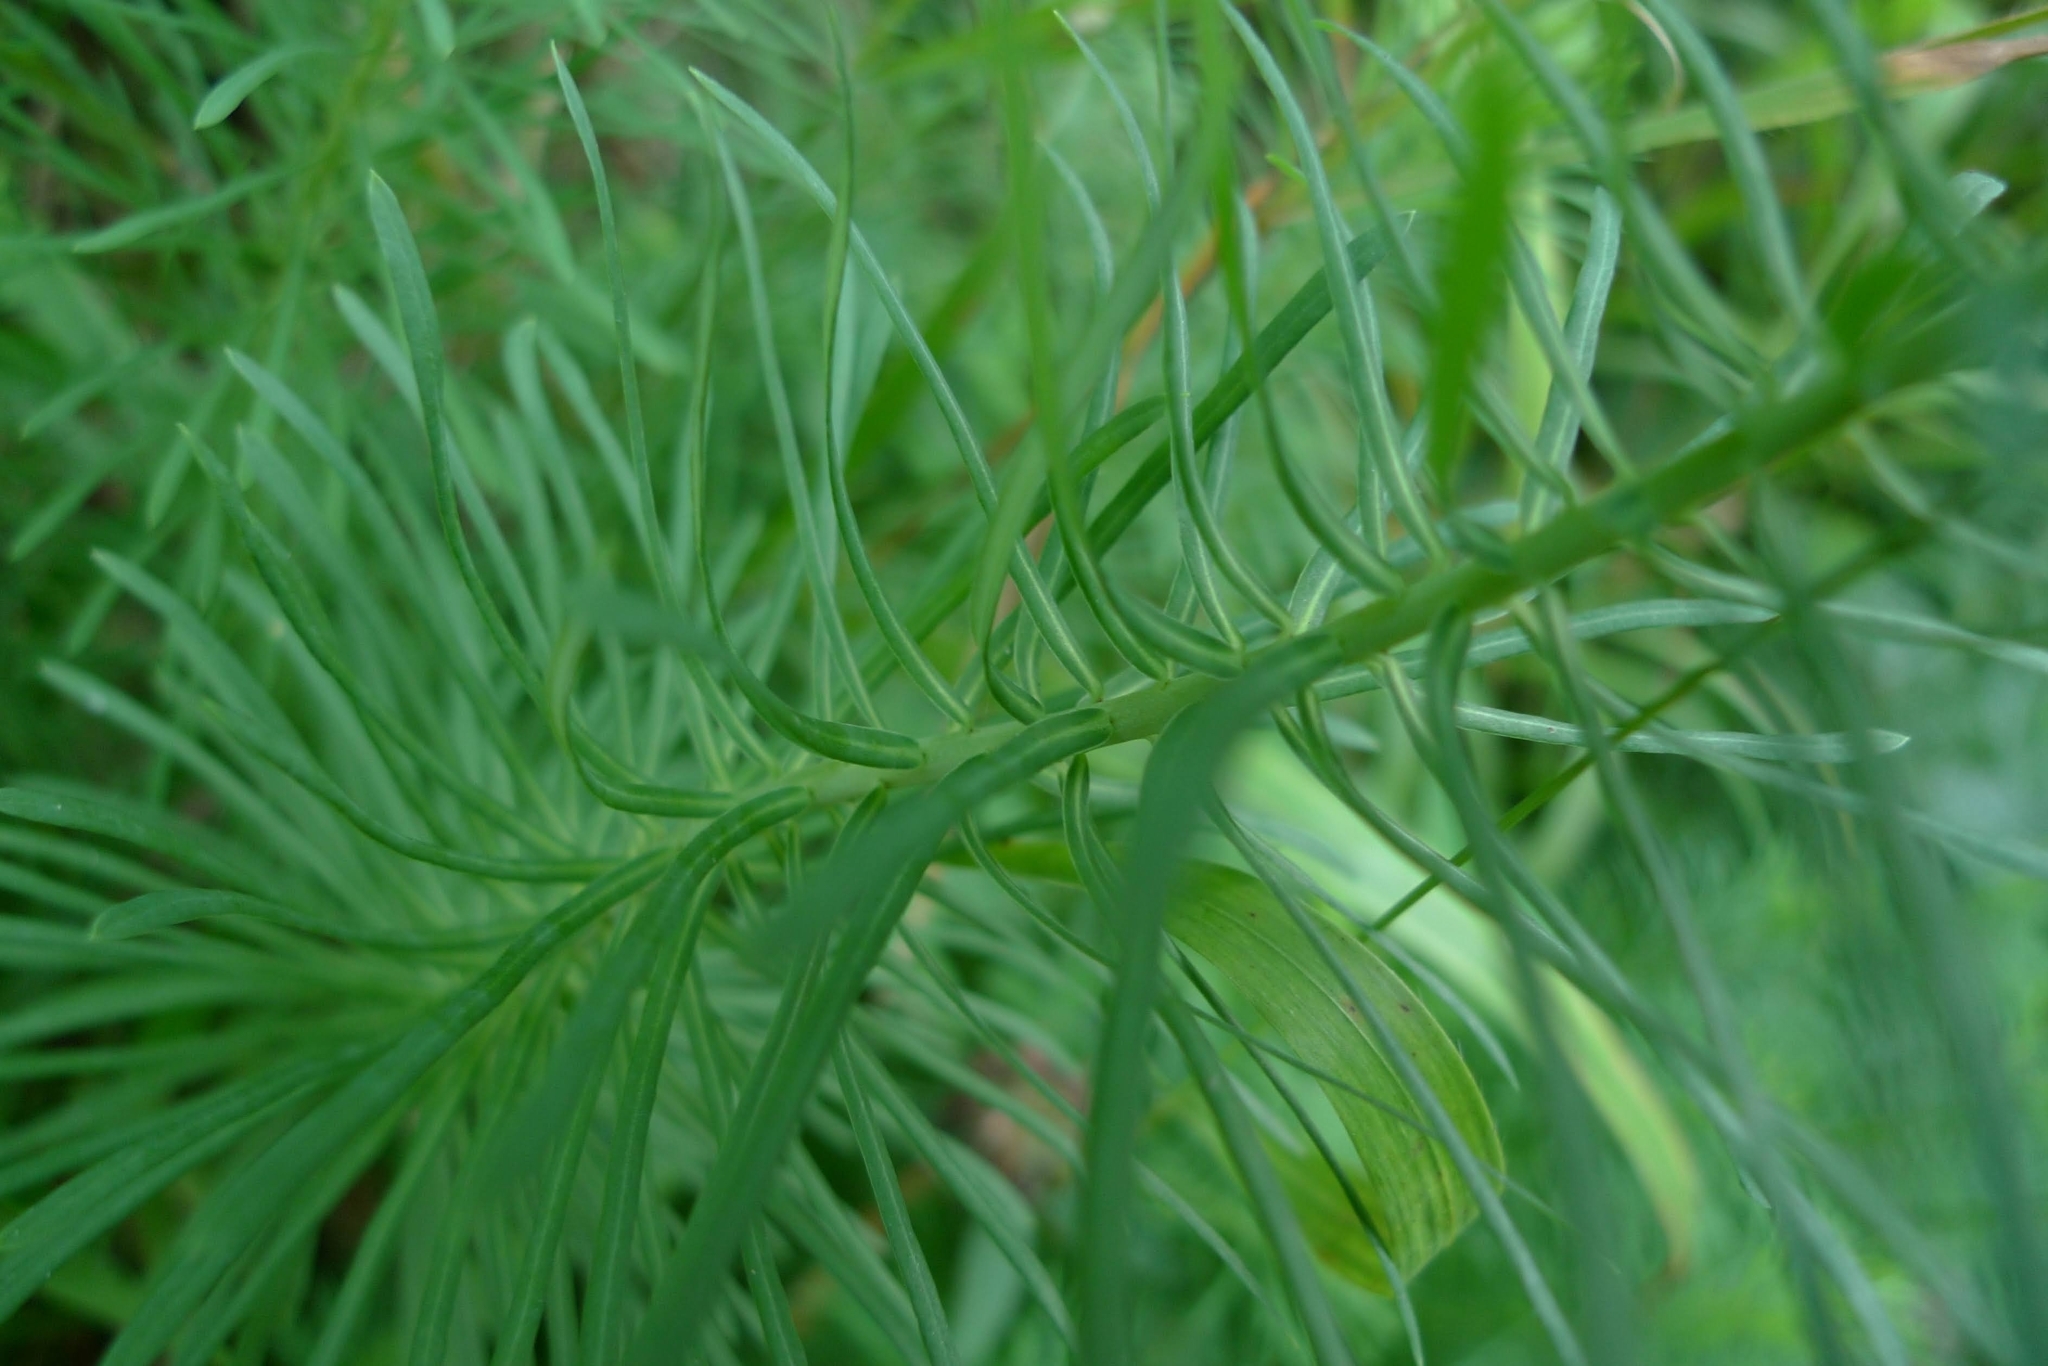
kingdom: Plantae
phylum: Tracheophyta
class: Magnoliopsida
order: Malpighiales
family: Euphorbiaceae
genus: Euphorbia
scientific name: Euphorbia cyparissias
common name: Cypress spurge
